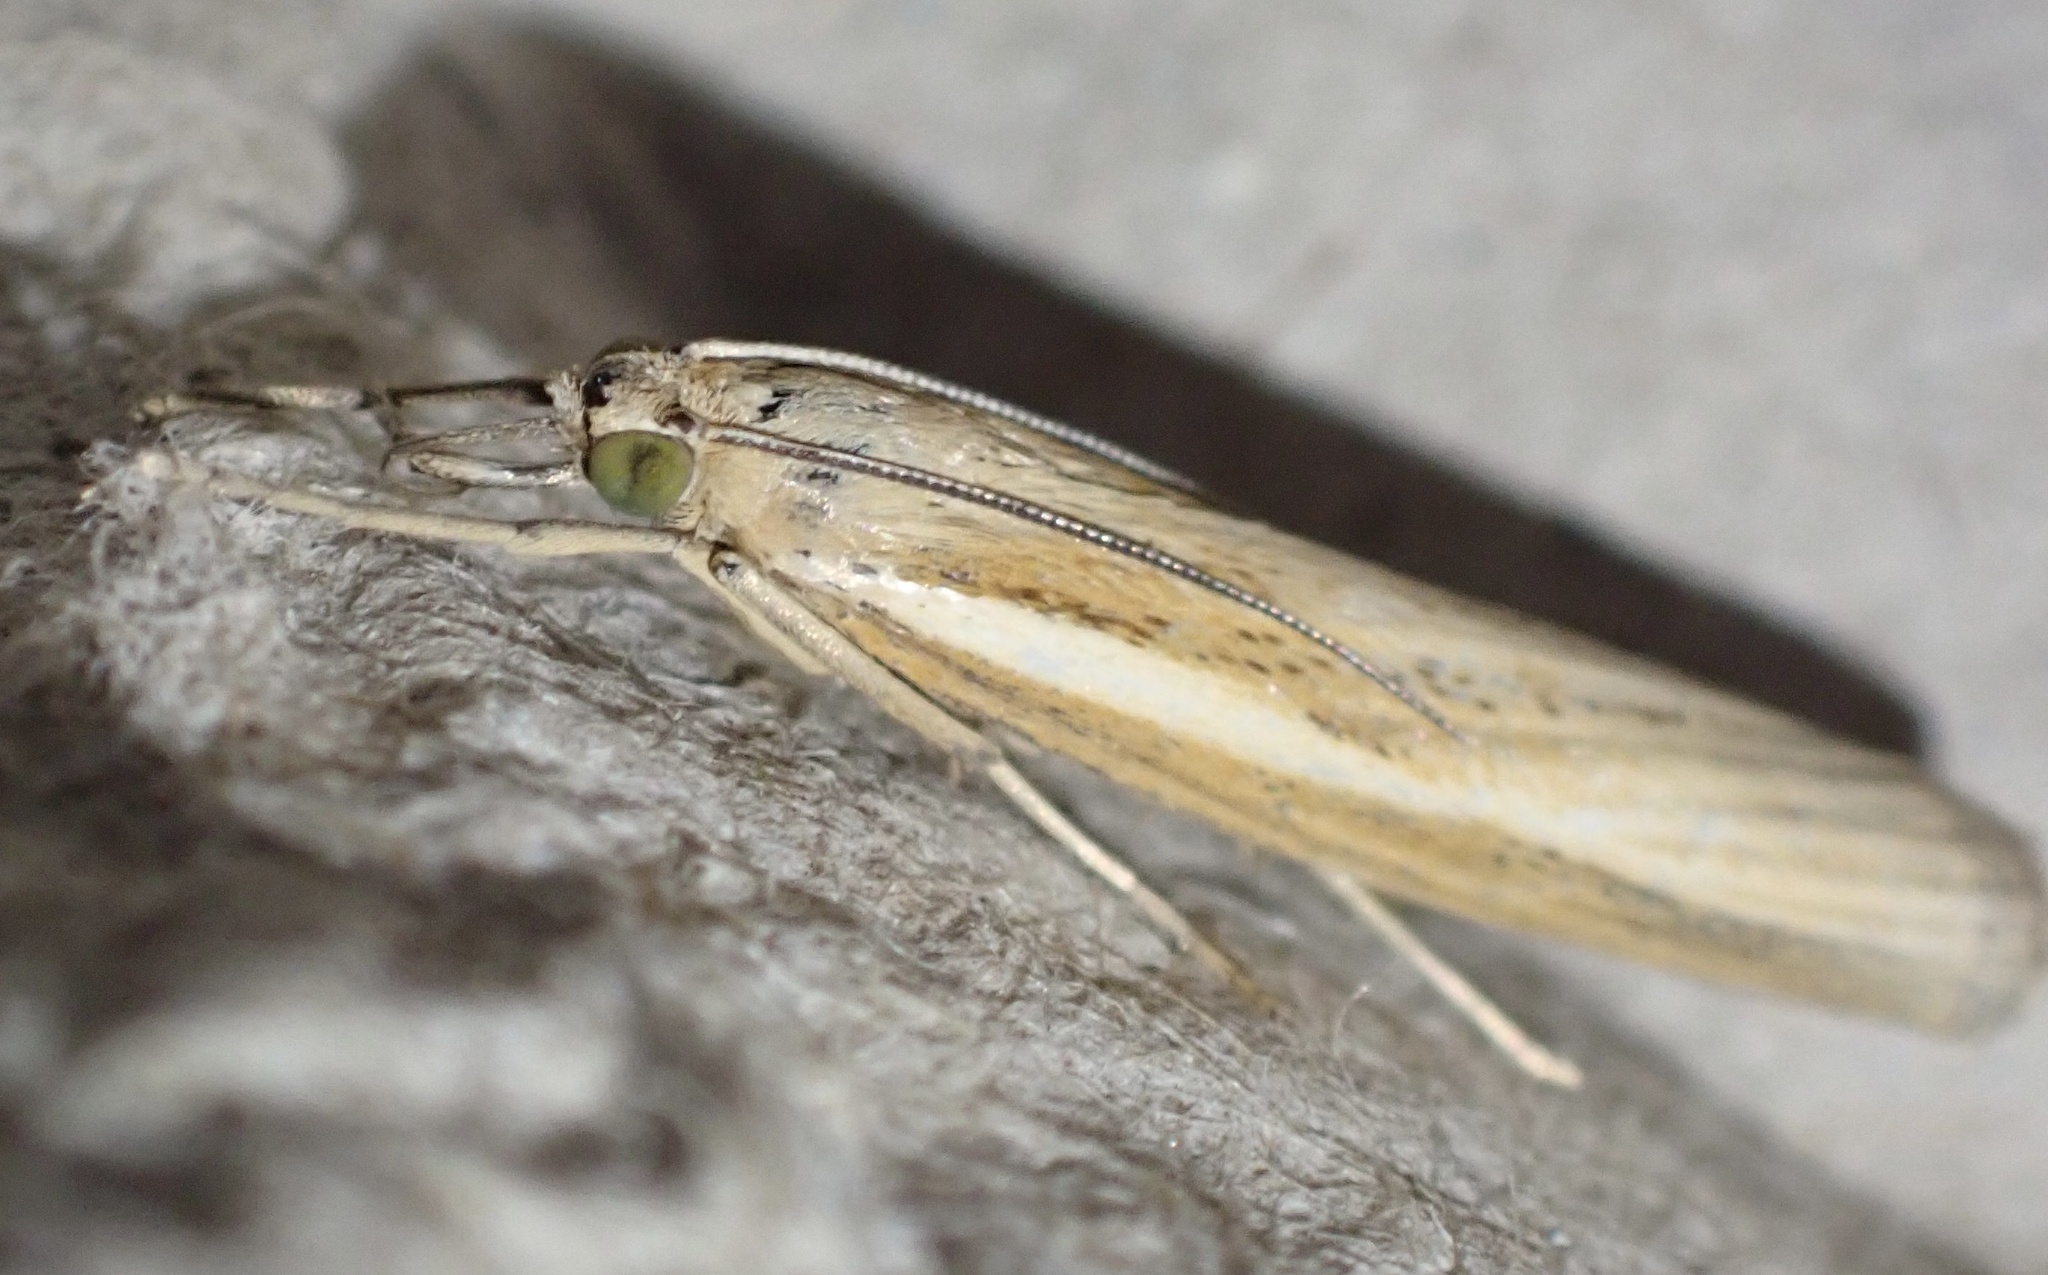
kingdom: Animalia
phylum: Arthropoda
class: Insecta
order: Lepidoptera
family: Crambidae
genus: Agriphila
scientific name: Agriphila tristellus
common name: Common grass-veneer
